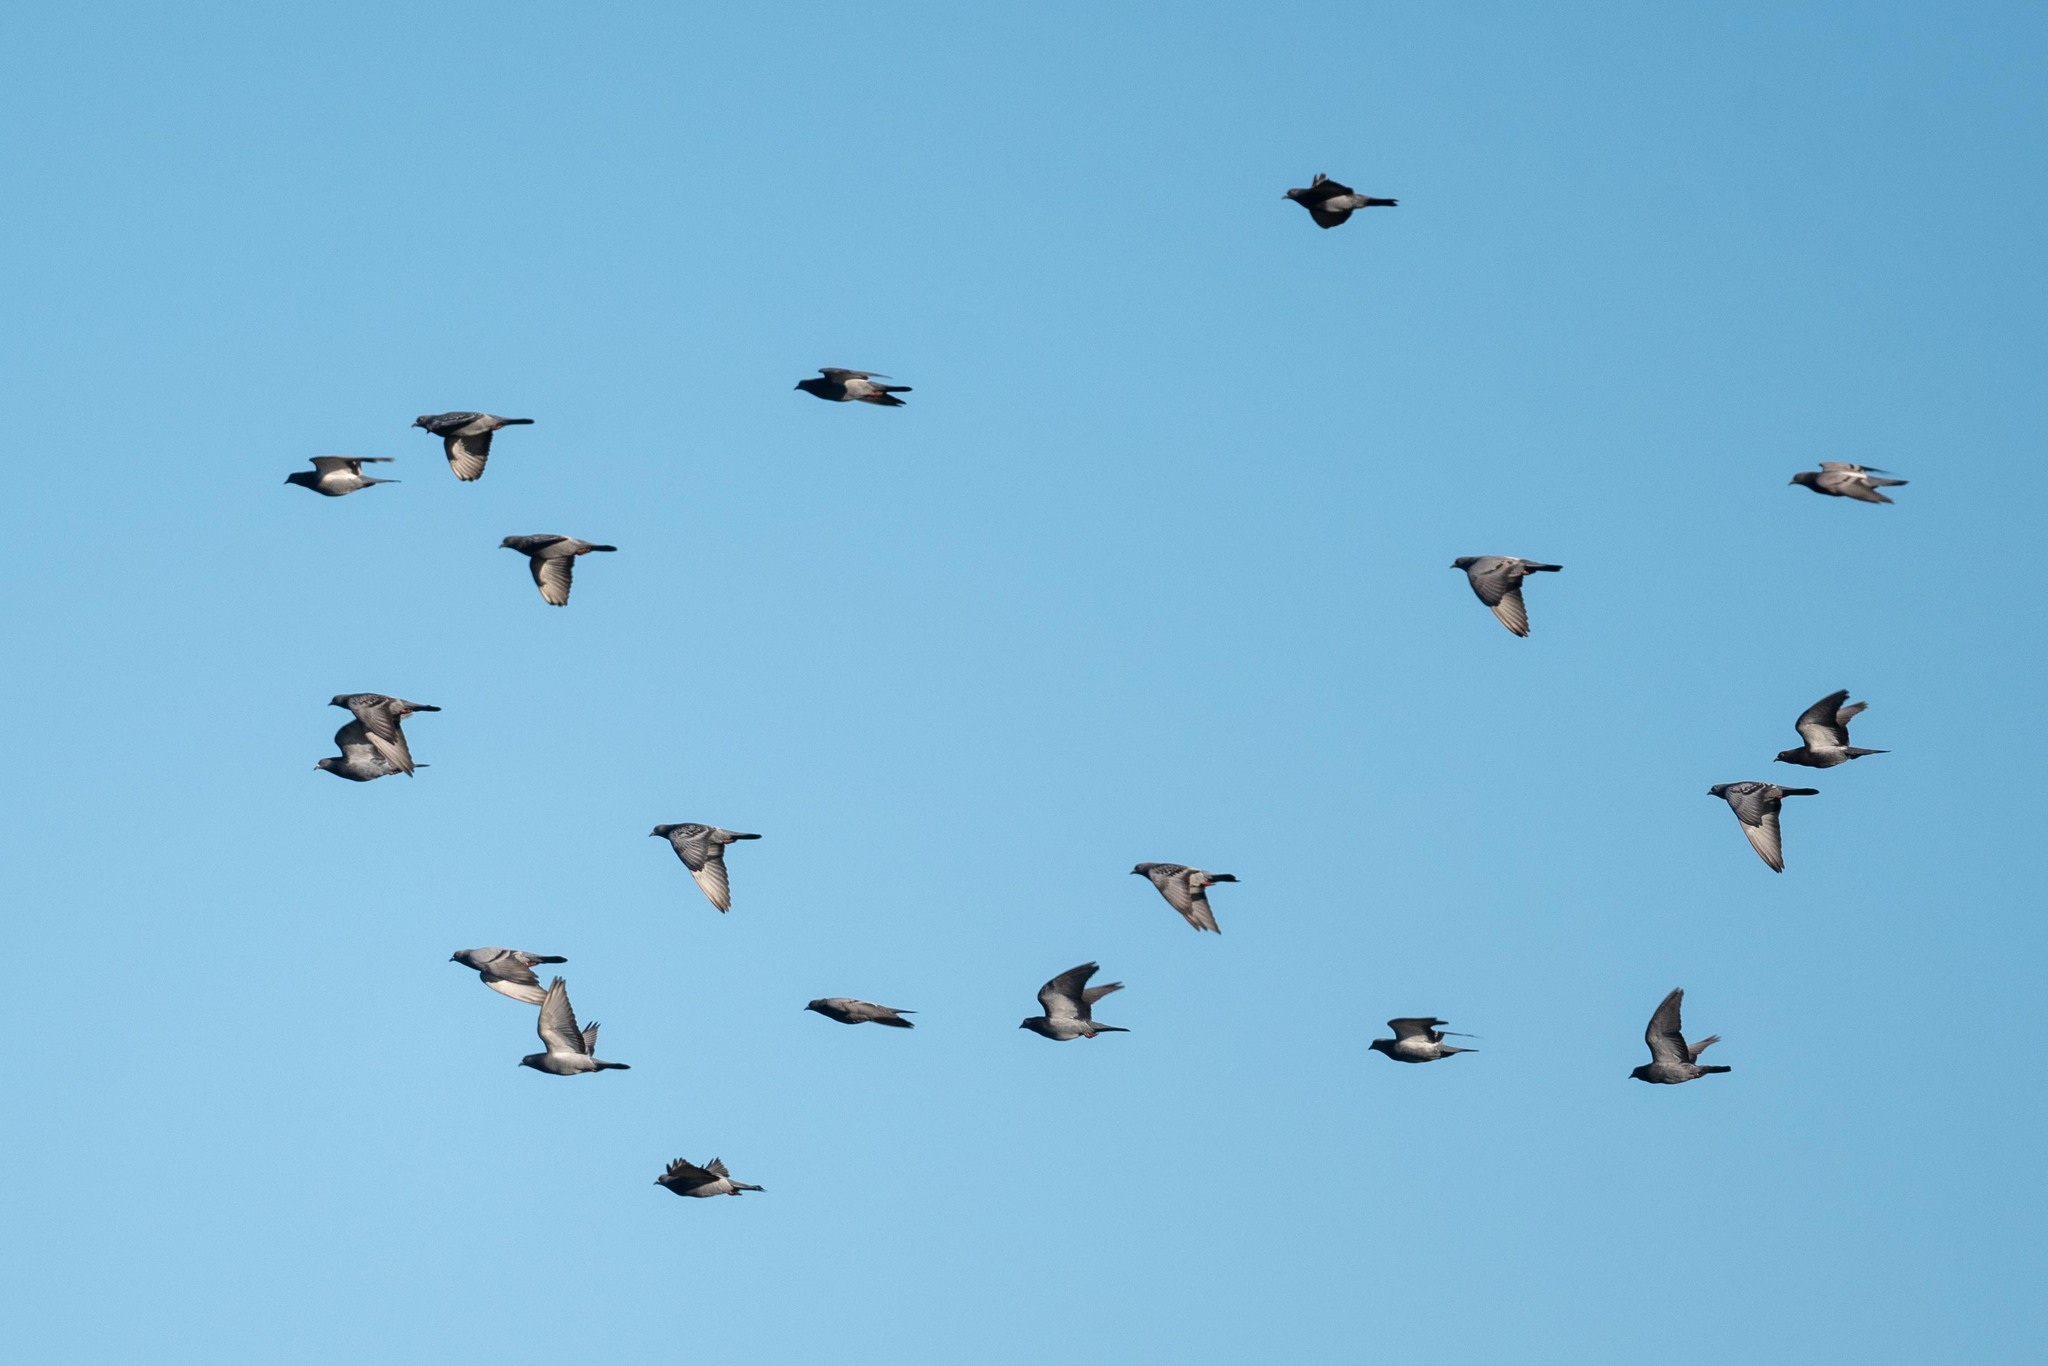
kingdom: Animalia
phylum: Chordata
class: Aves
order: Columbiformes
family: Columbidae
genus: Columba
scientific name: Columba livia
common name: Rock pigeon
